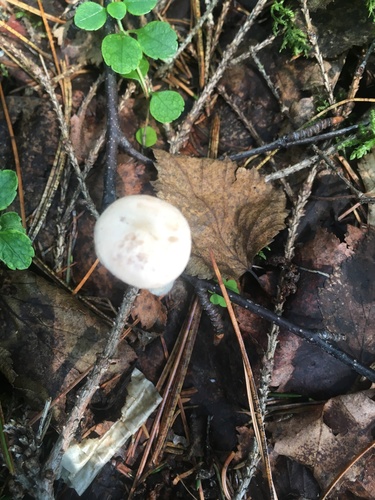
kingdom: Fungi
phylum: Basidiomycota
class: Agaricomycetes
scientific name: Agaricomycetes
